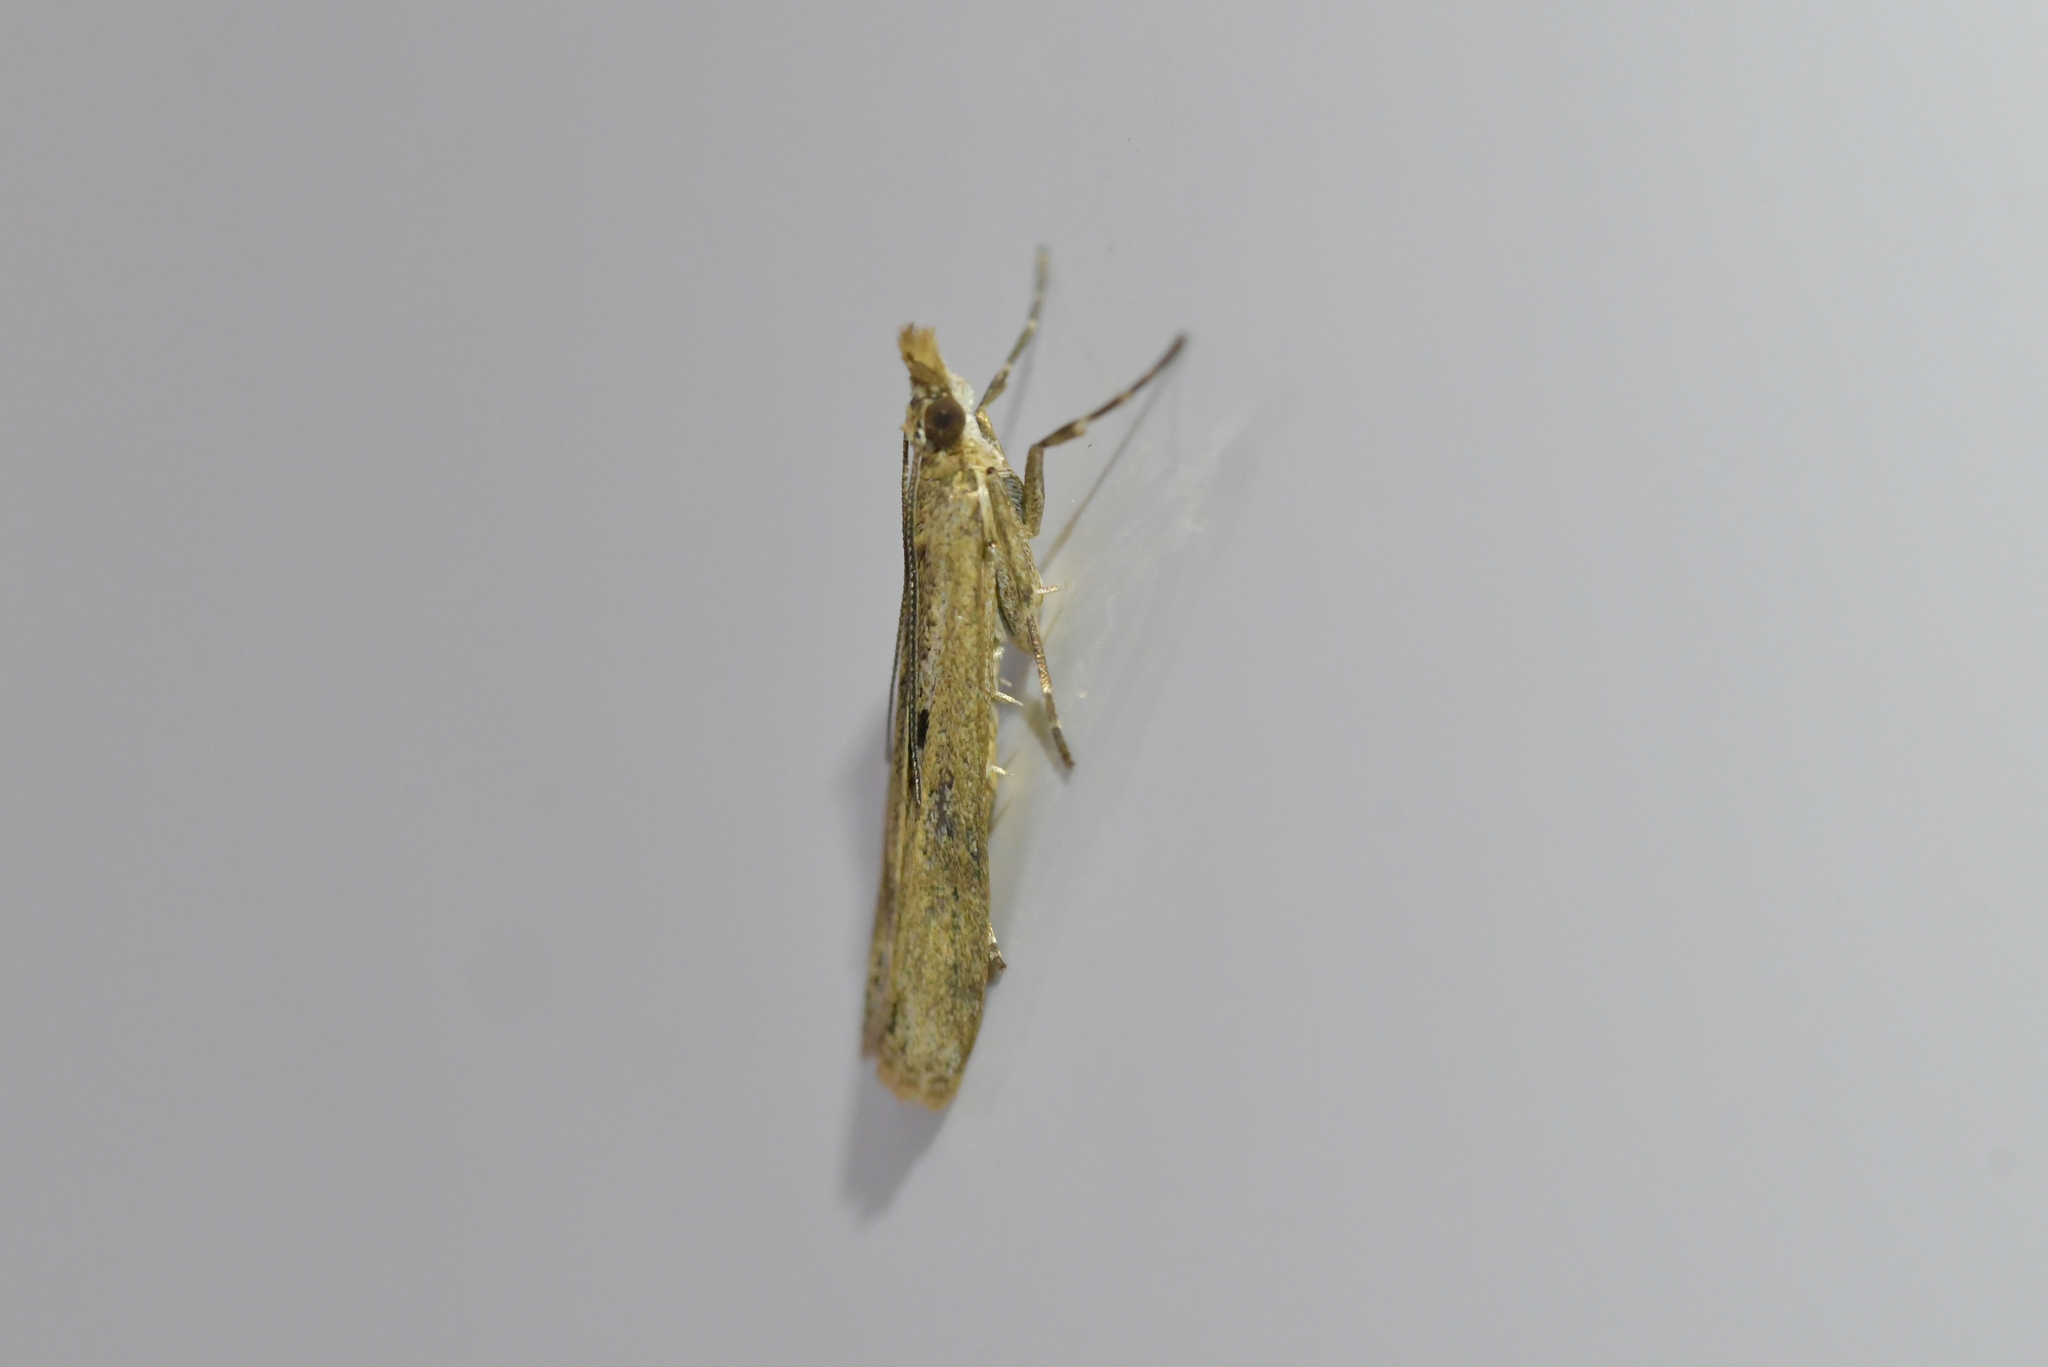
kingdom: Animalia
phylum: Arthropoda
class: Insecta
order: Lepidoptera
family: Crambidae
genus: Eudonia
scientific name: Eudonia leptalea
